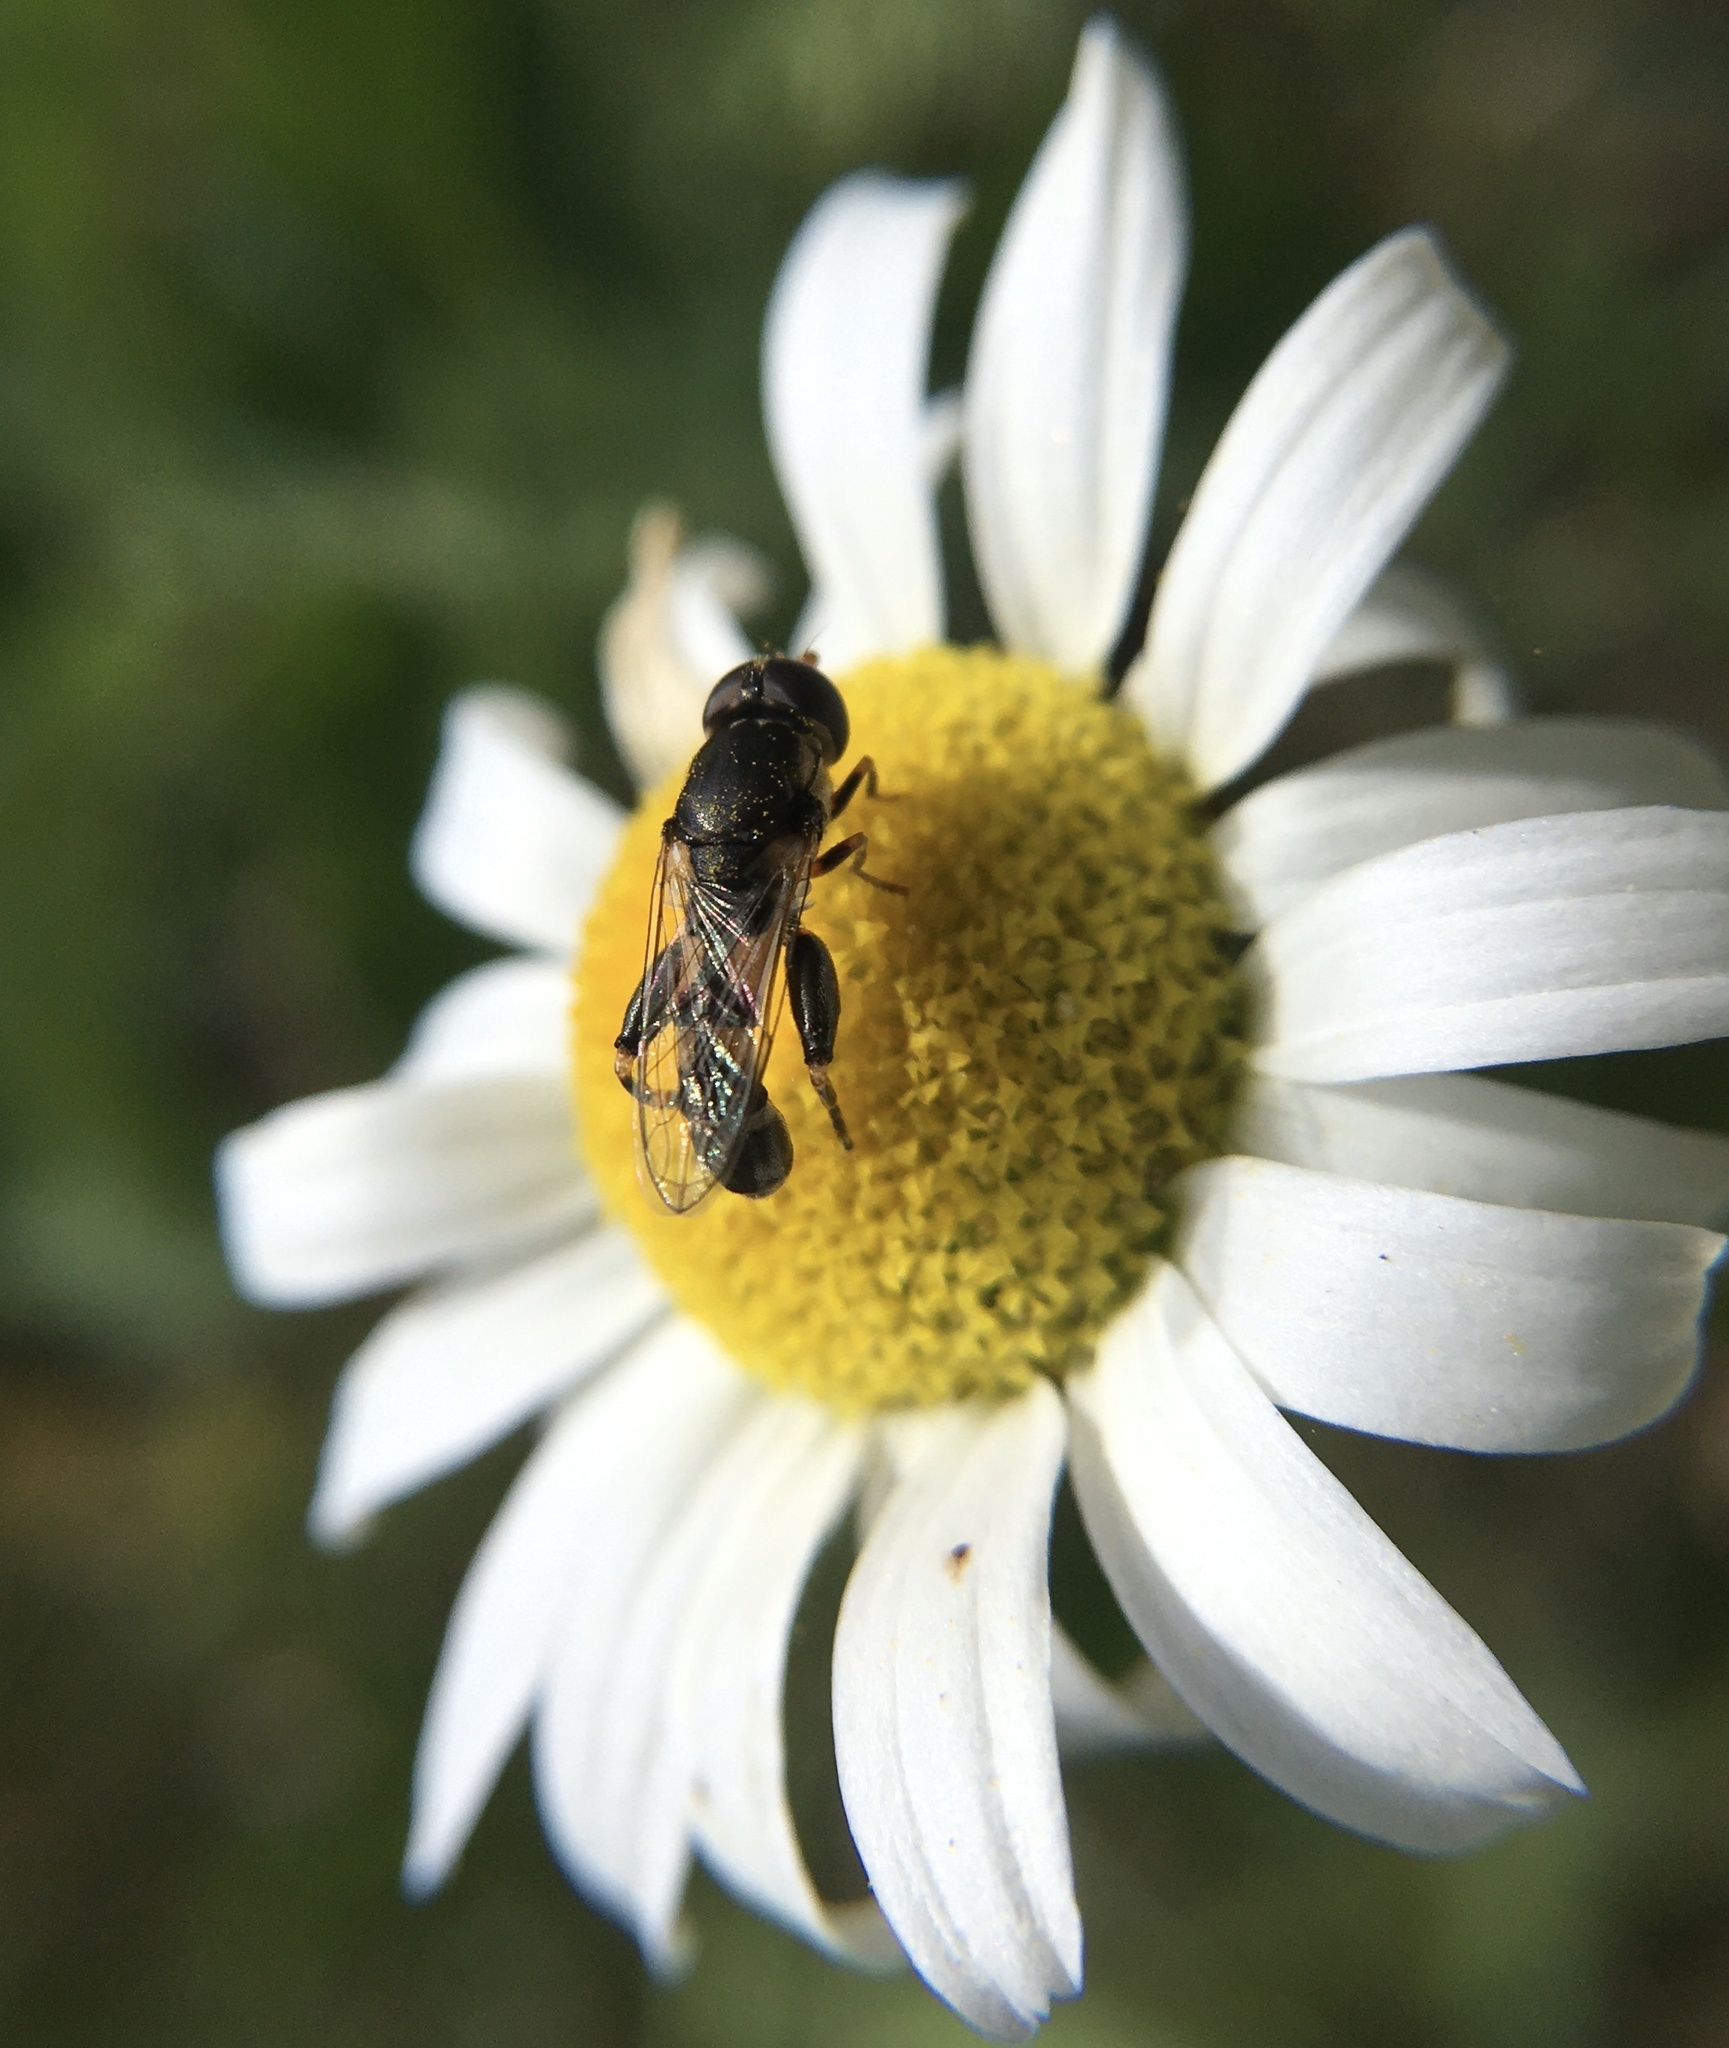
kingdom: Animalia
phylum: Arthropoda
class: Insecta
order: Diptera
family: Syrphidae
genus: Syritta
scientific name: Syritta pipiens
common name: Hover fly
